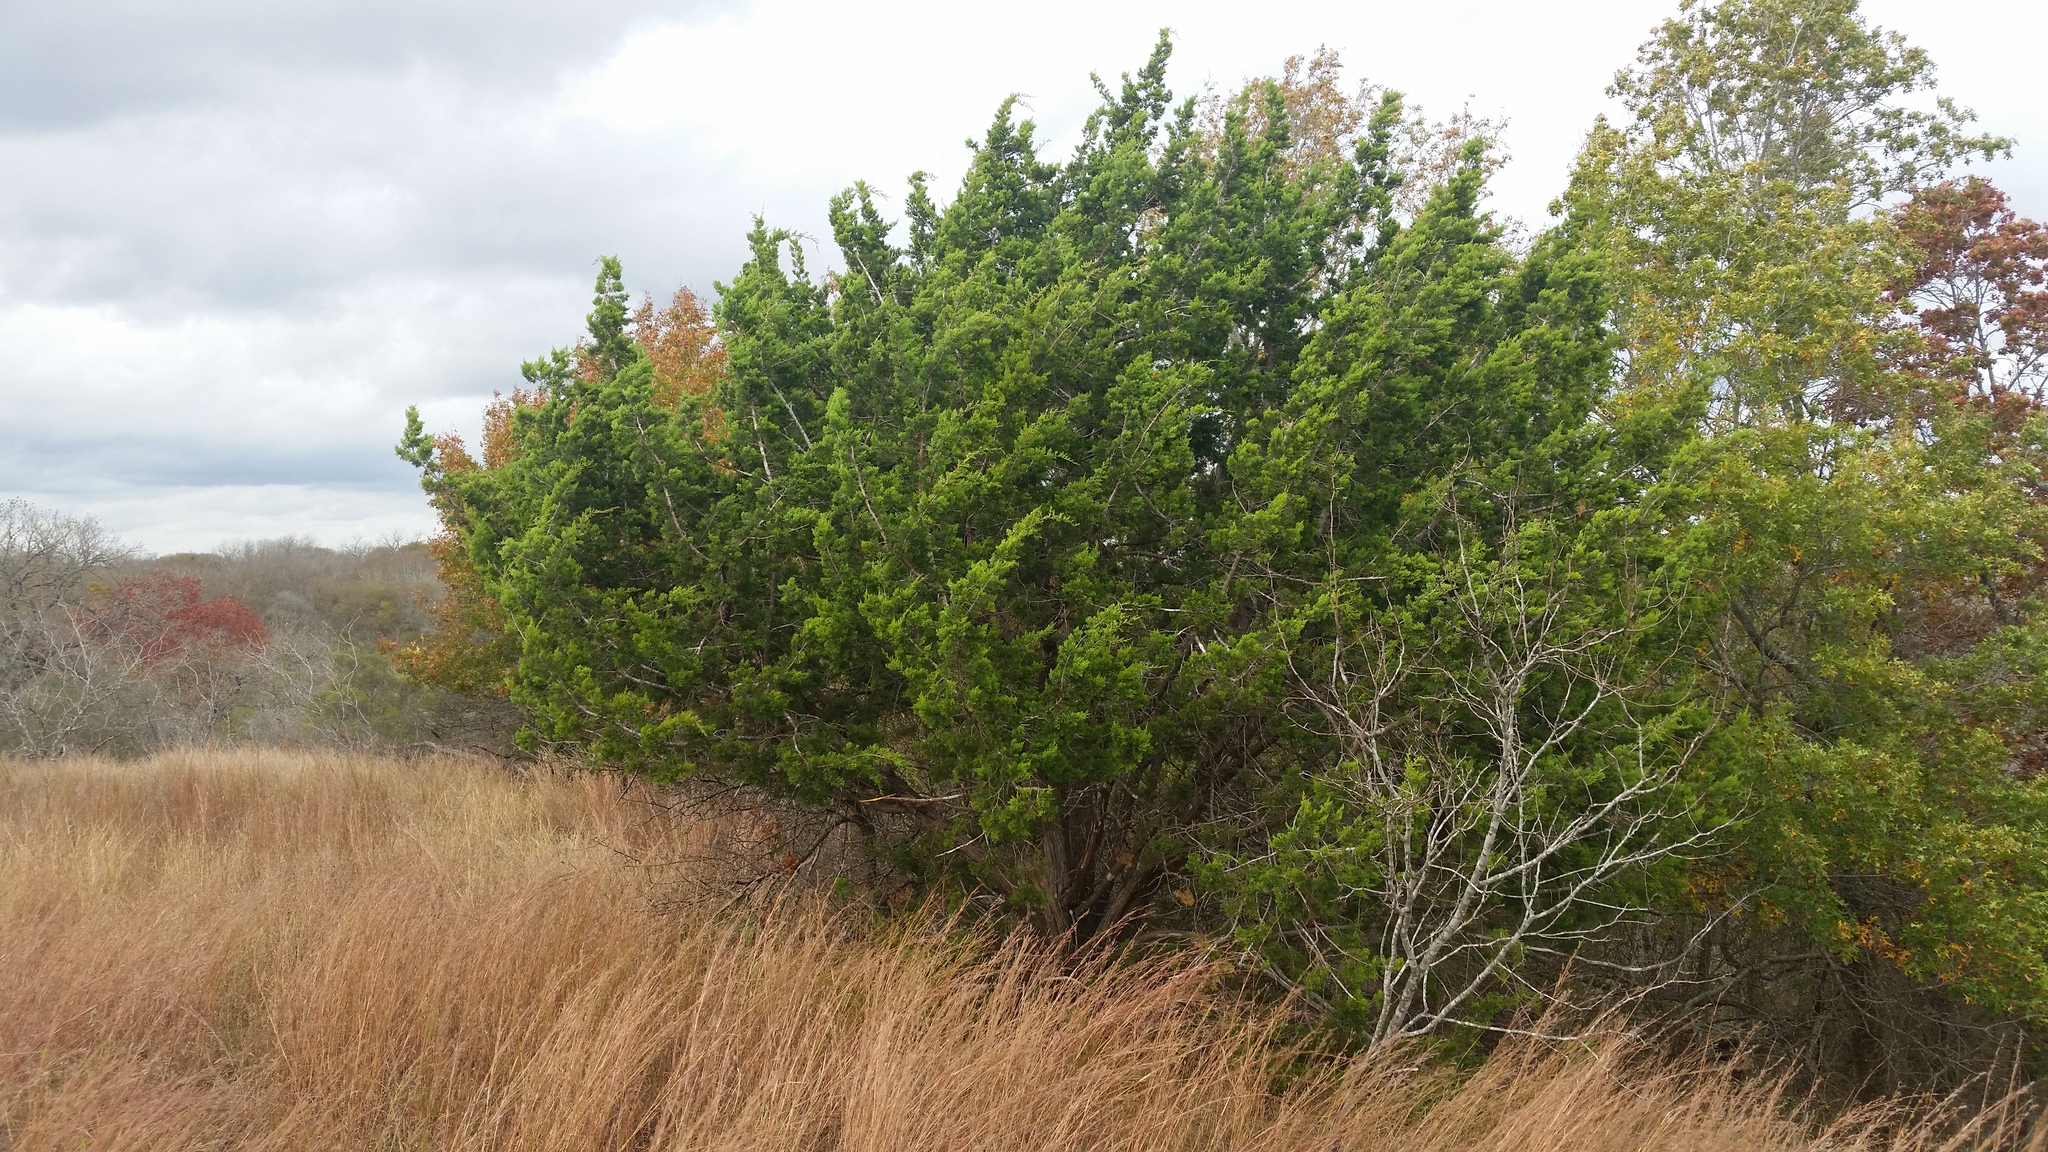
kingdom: Plantae
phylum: Tracheophyta
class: Pinopsida
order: Pinales
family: Cupressaceae
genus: Juniperus
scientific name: Juniperus ashei
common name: Mexican juniper
